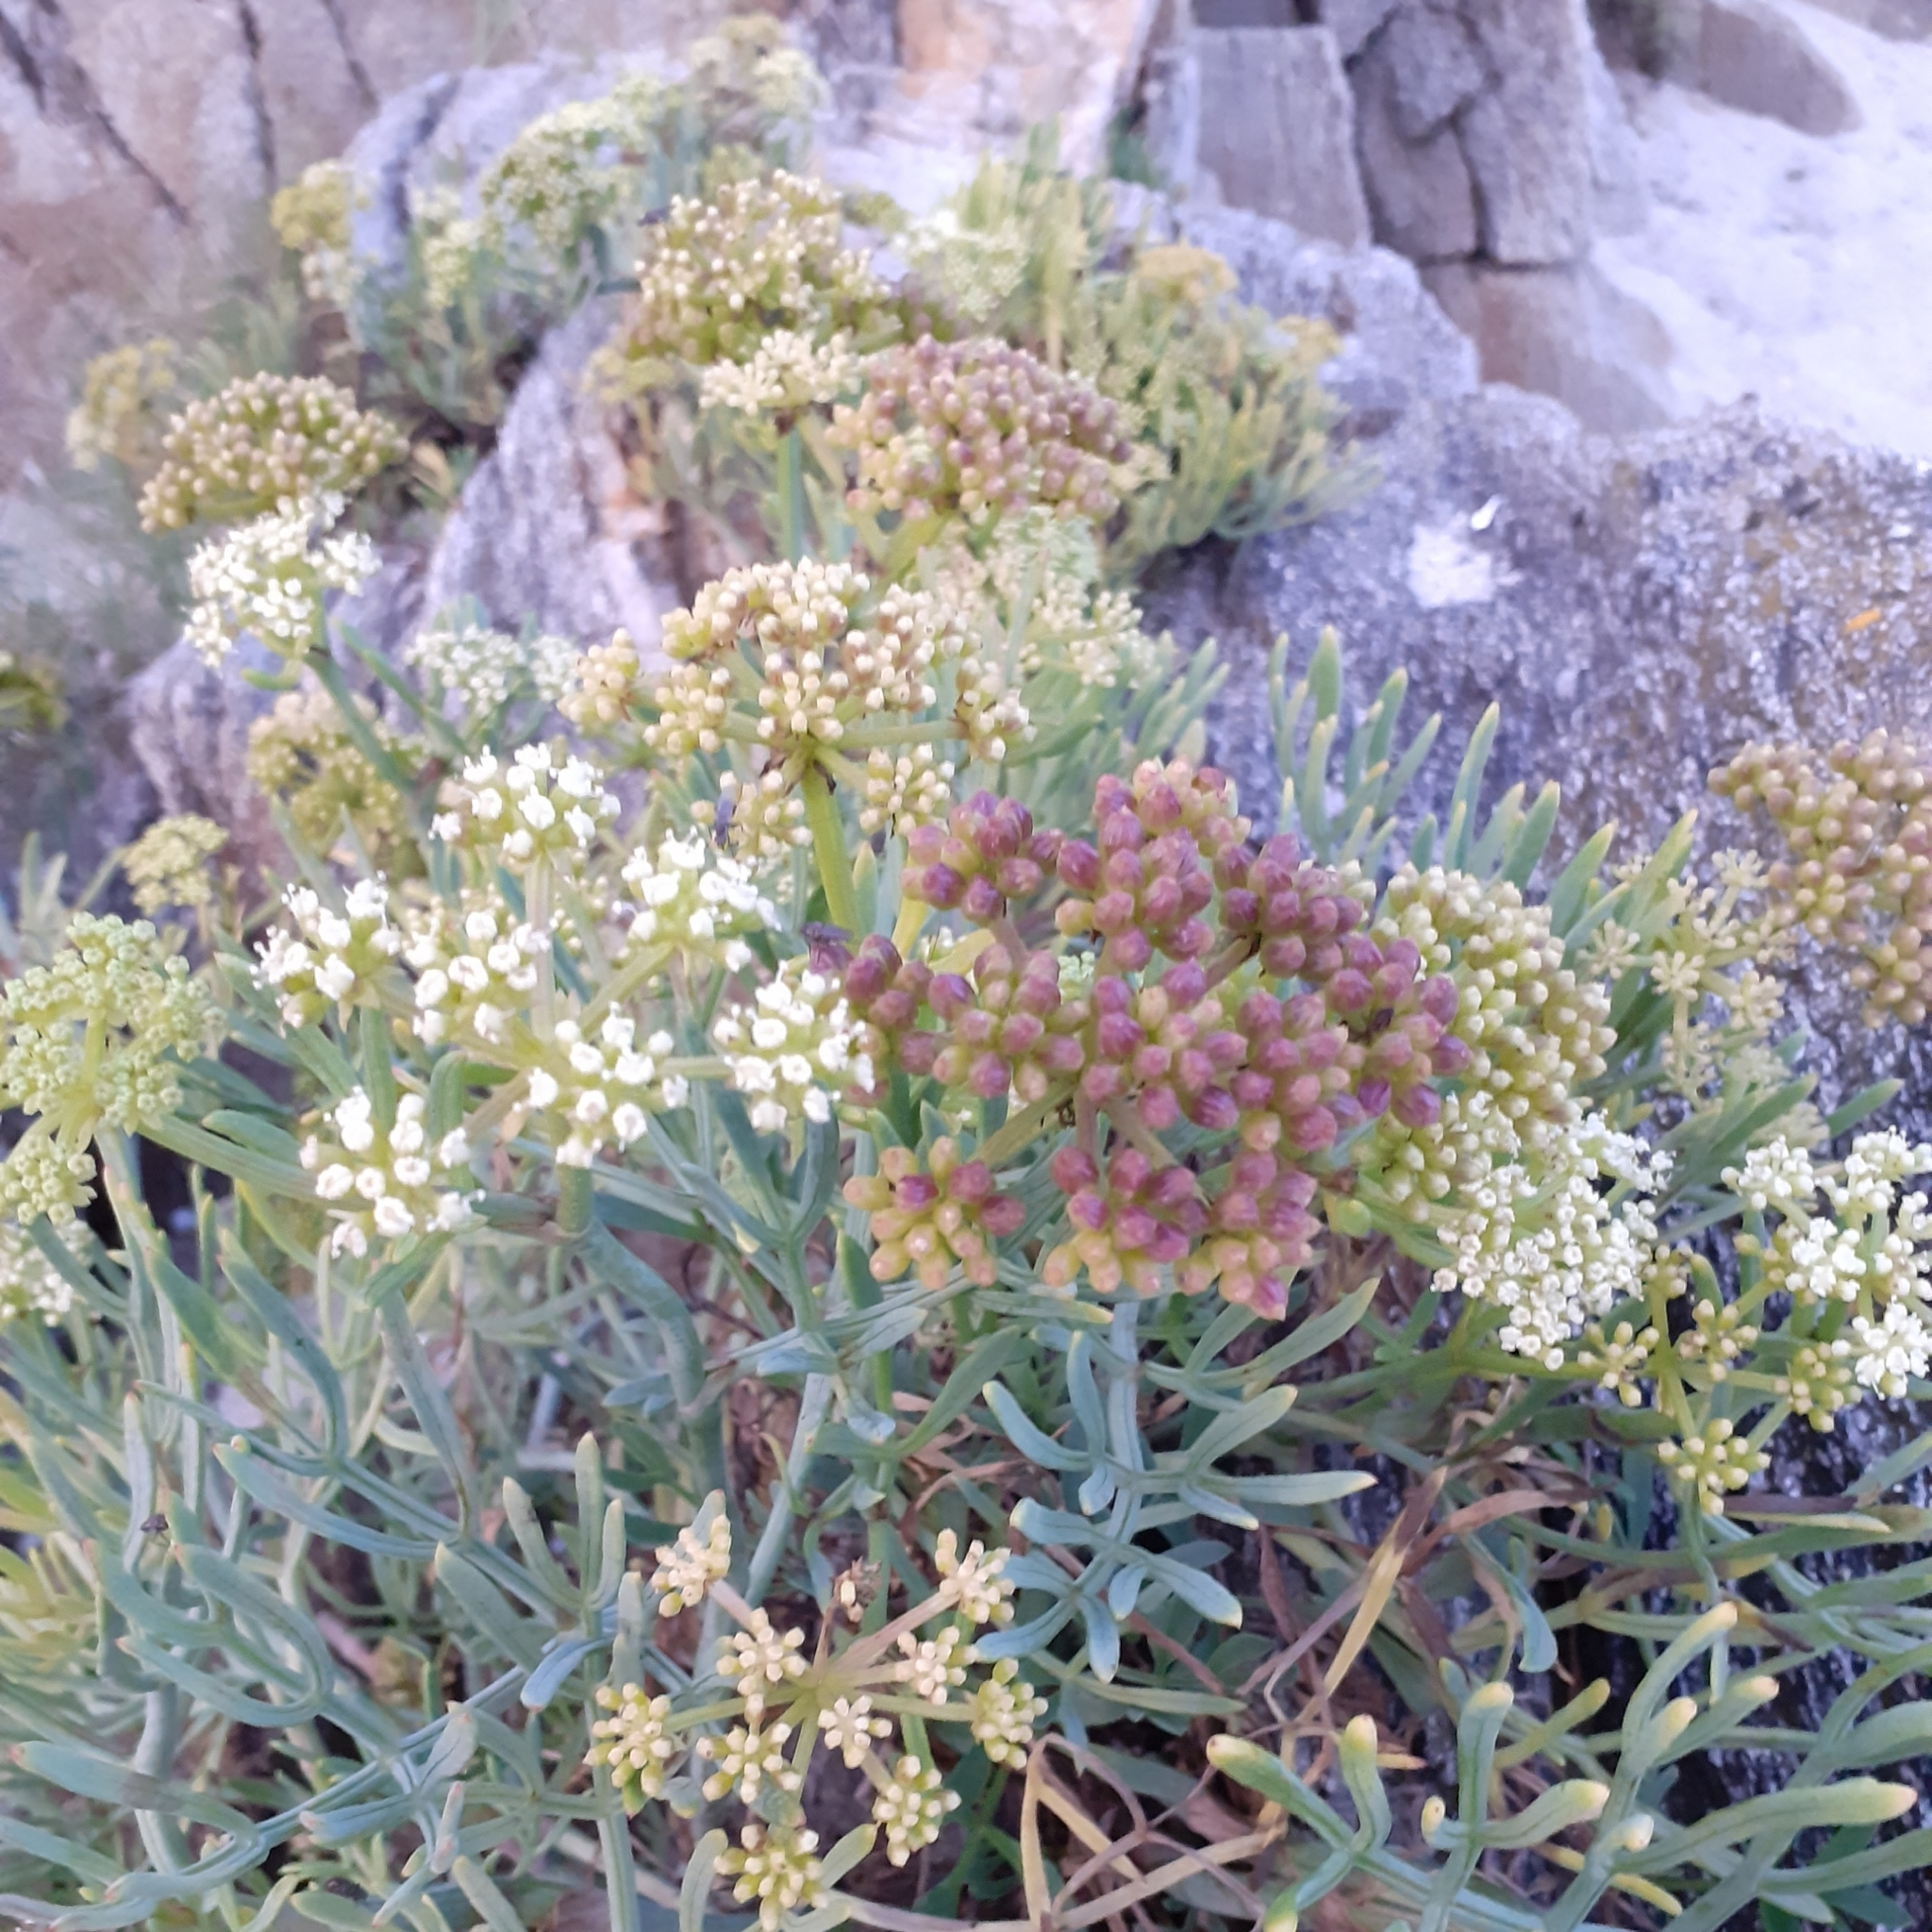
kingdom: Plantae
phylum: Tracheophyta
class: Magnoliopsida
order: Apiales
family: Apiaceae
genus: Crithmum
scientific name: Crithmum maritimum
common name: Rock samphire
